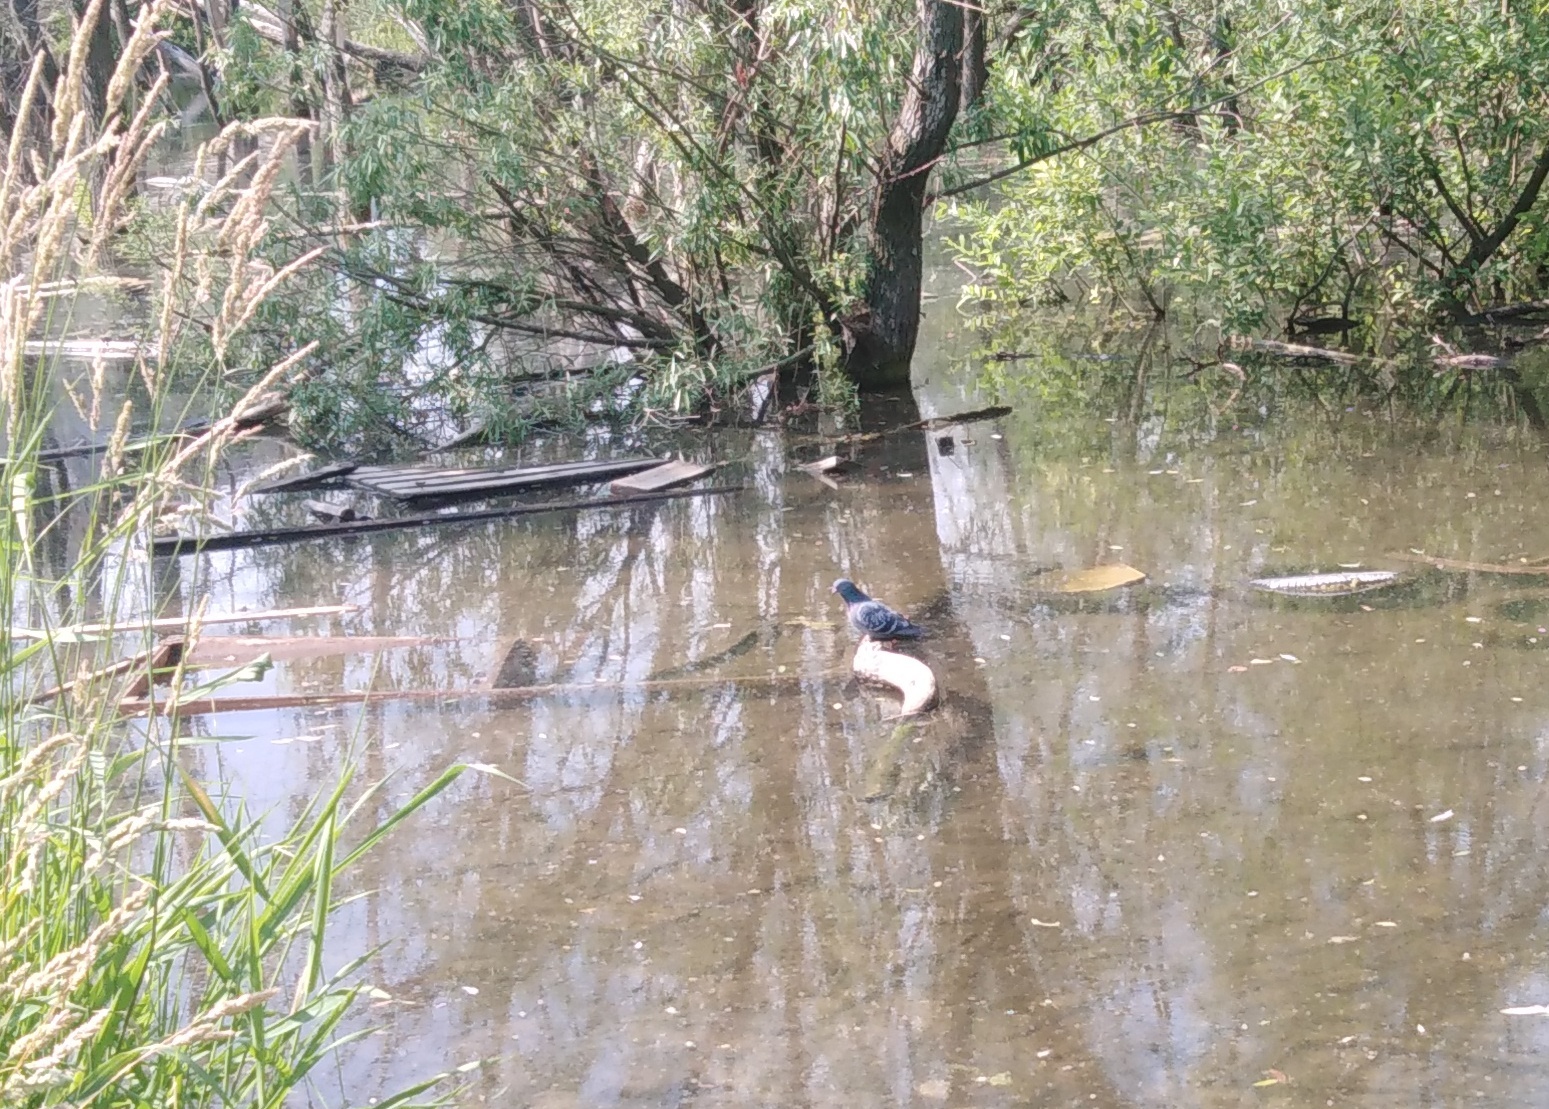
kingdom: Animalia
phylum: Chordata
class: Aves
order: Columbiformes
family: Columbidae
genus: Columba
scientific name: Columba livia
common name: Rock pigeon
